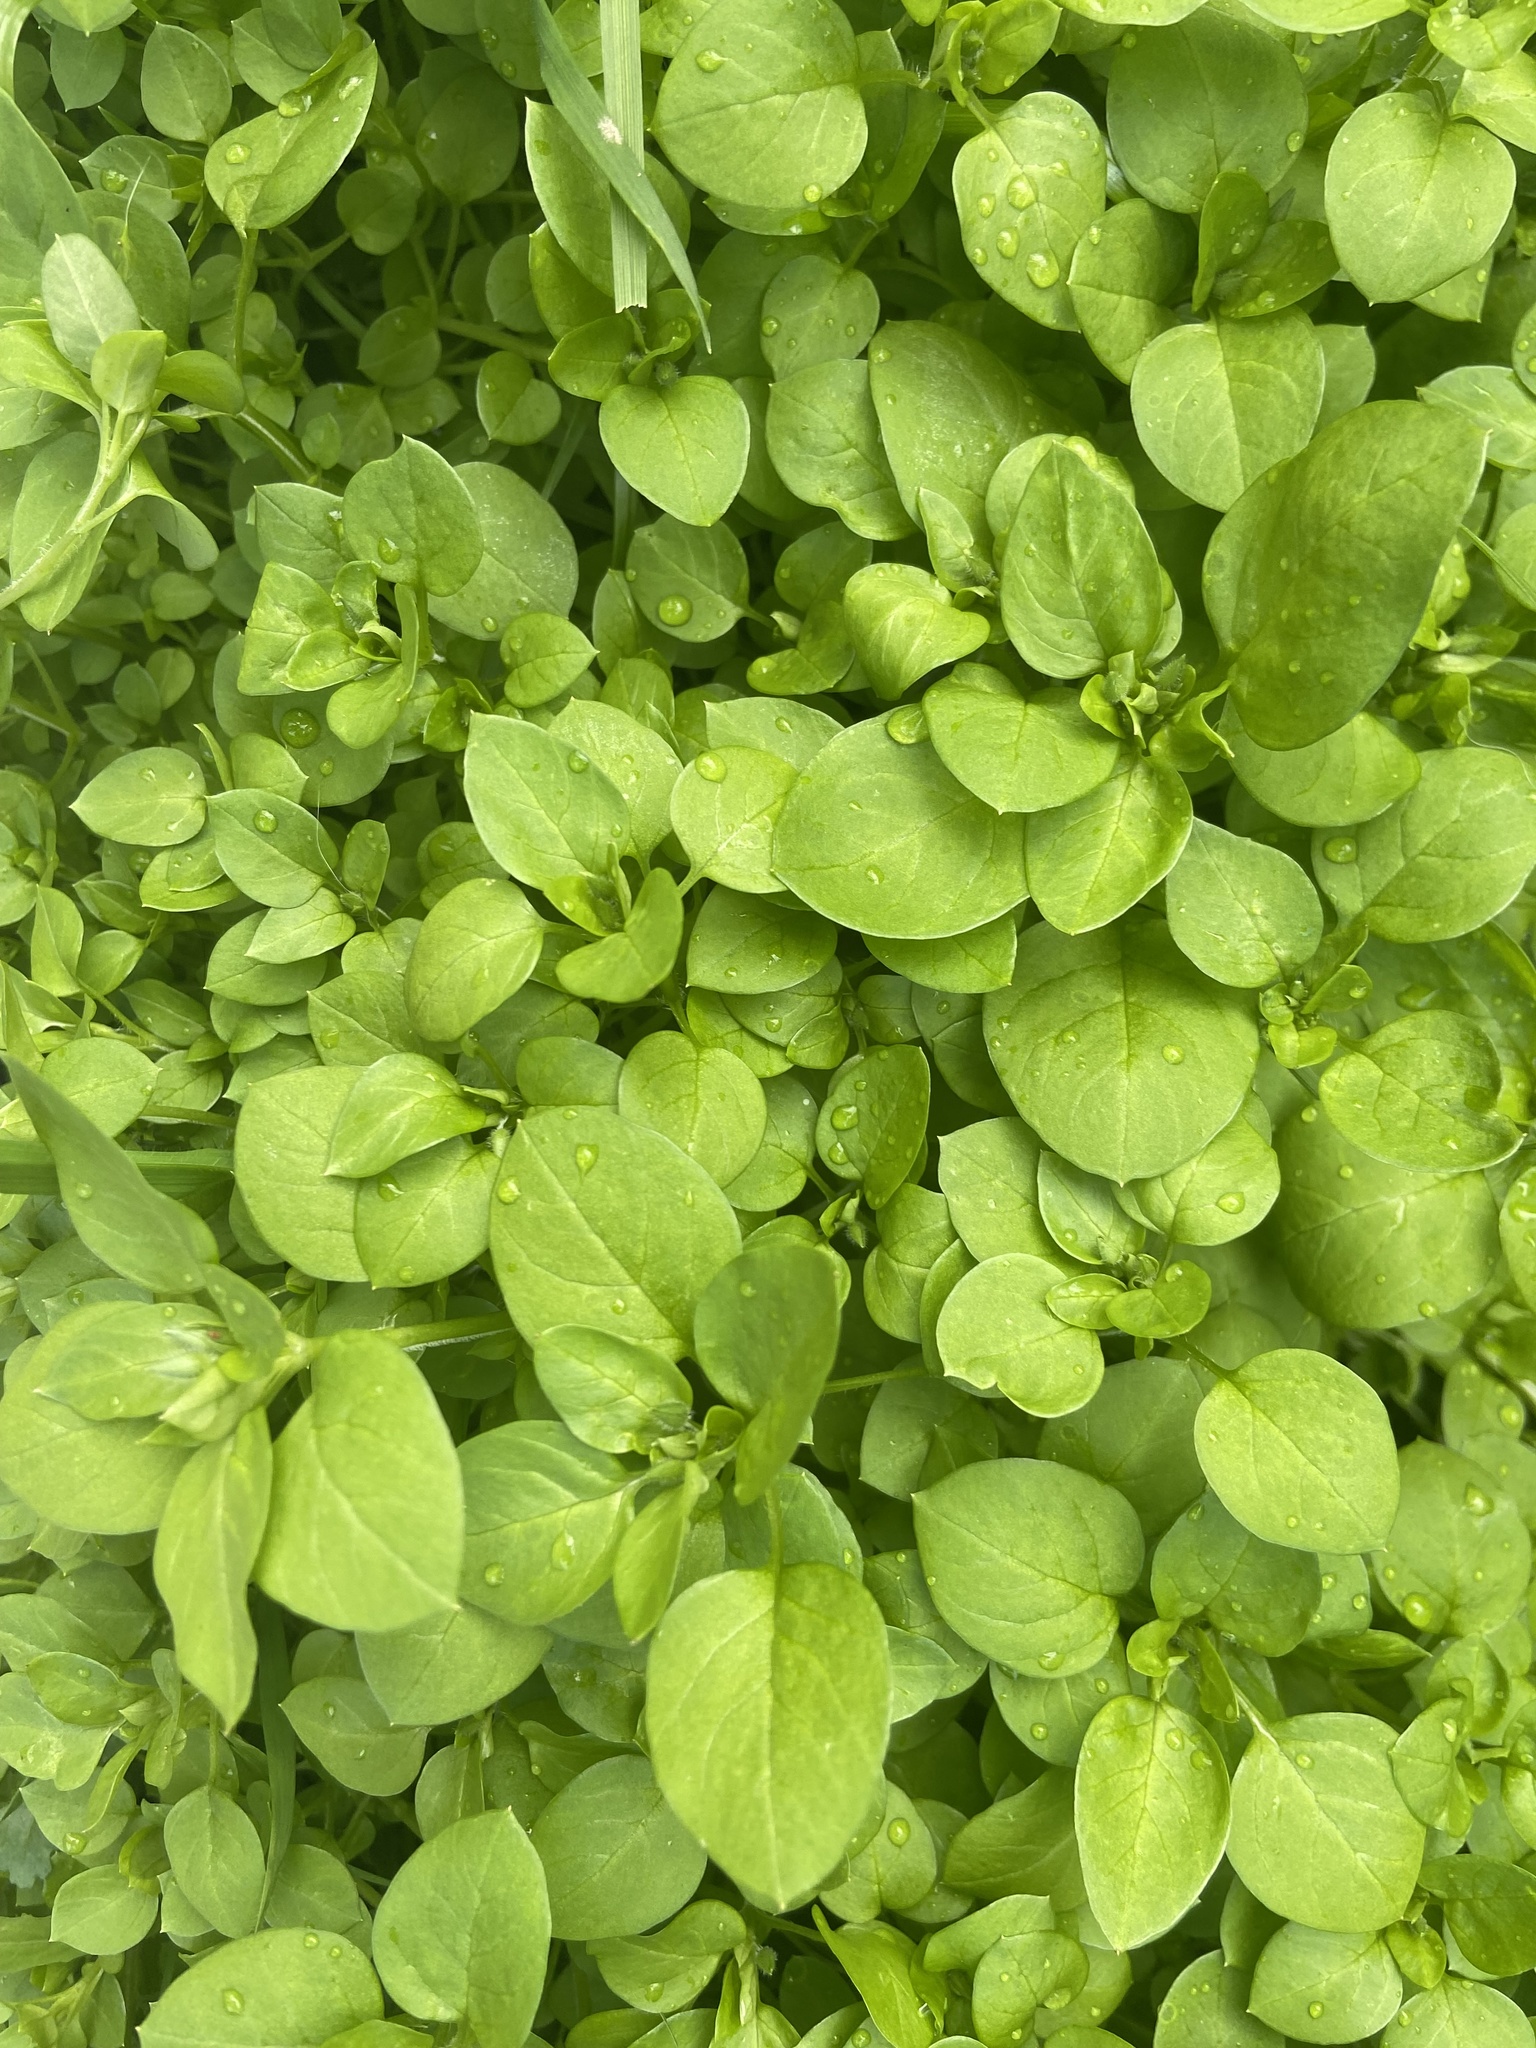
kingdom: Plantae
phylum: Tracheophyta
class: Magnoliopsida
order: Caryophyllales
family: Caryophyllaceae
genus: Stellaria
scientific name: Stellaria media
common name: Common chickweed
